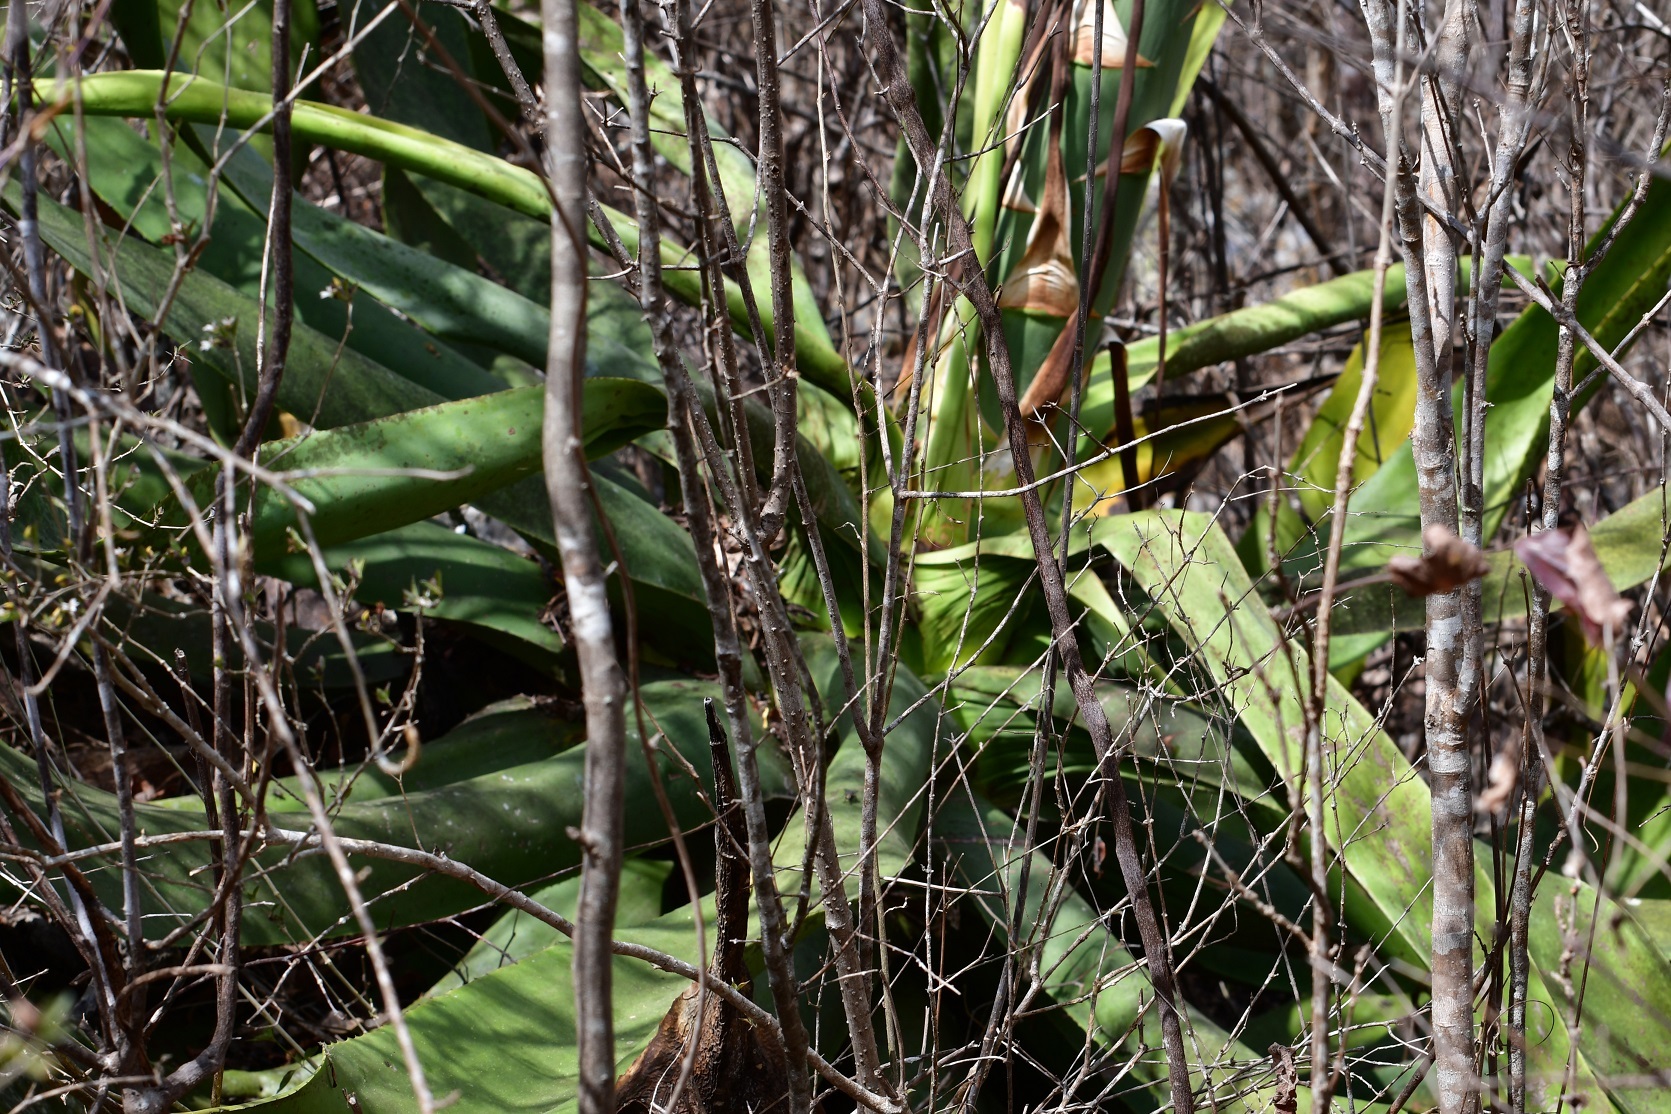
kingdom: Plantae
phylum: Tracheophyta
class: Liliopsida
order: Asparagales
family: Asparagaceae
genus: Agave
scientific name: Agave kewensis
